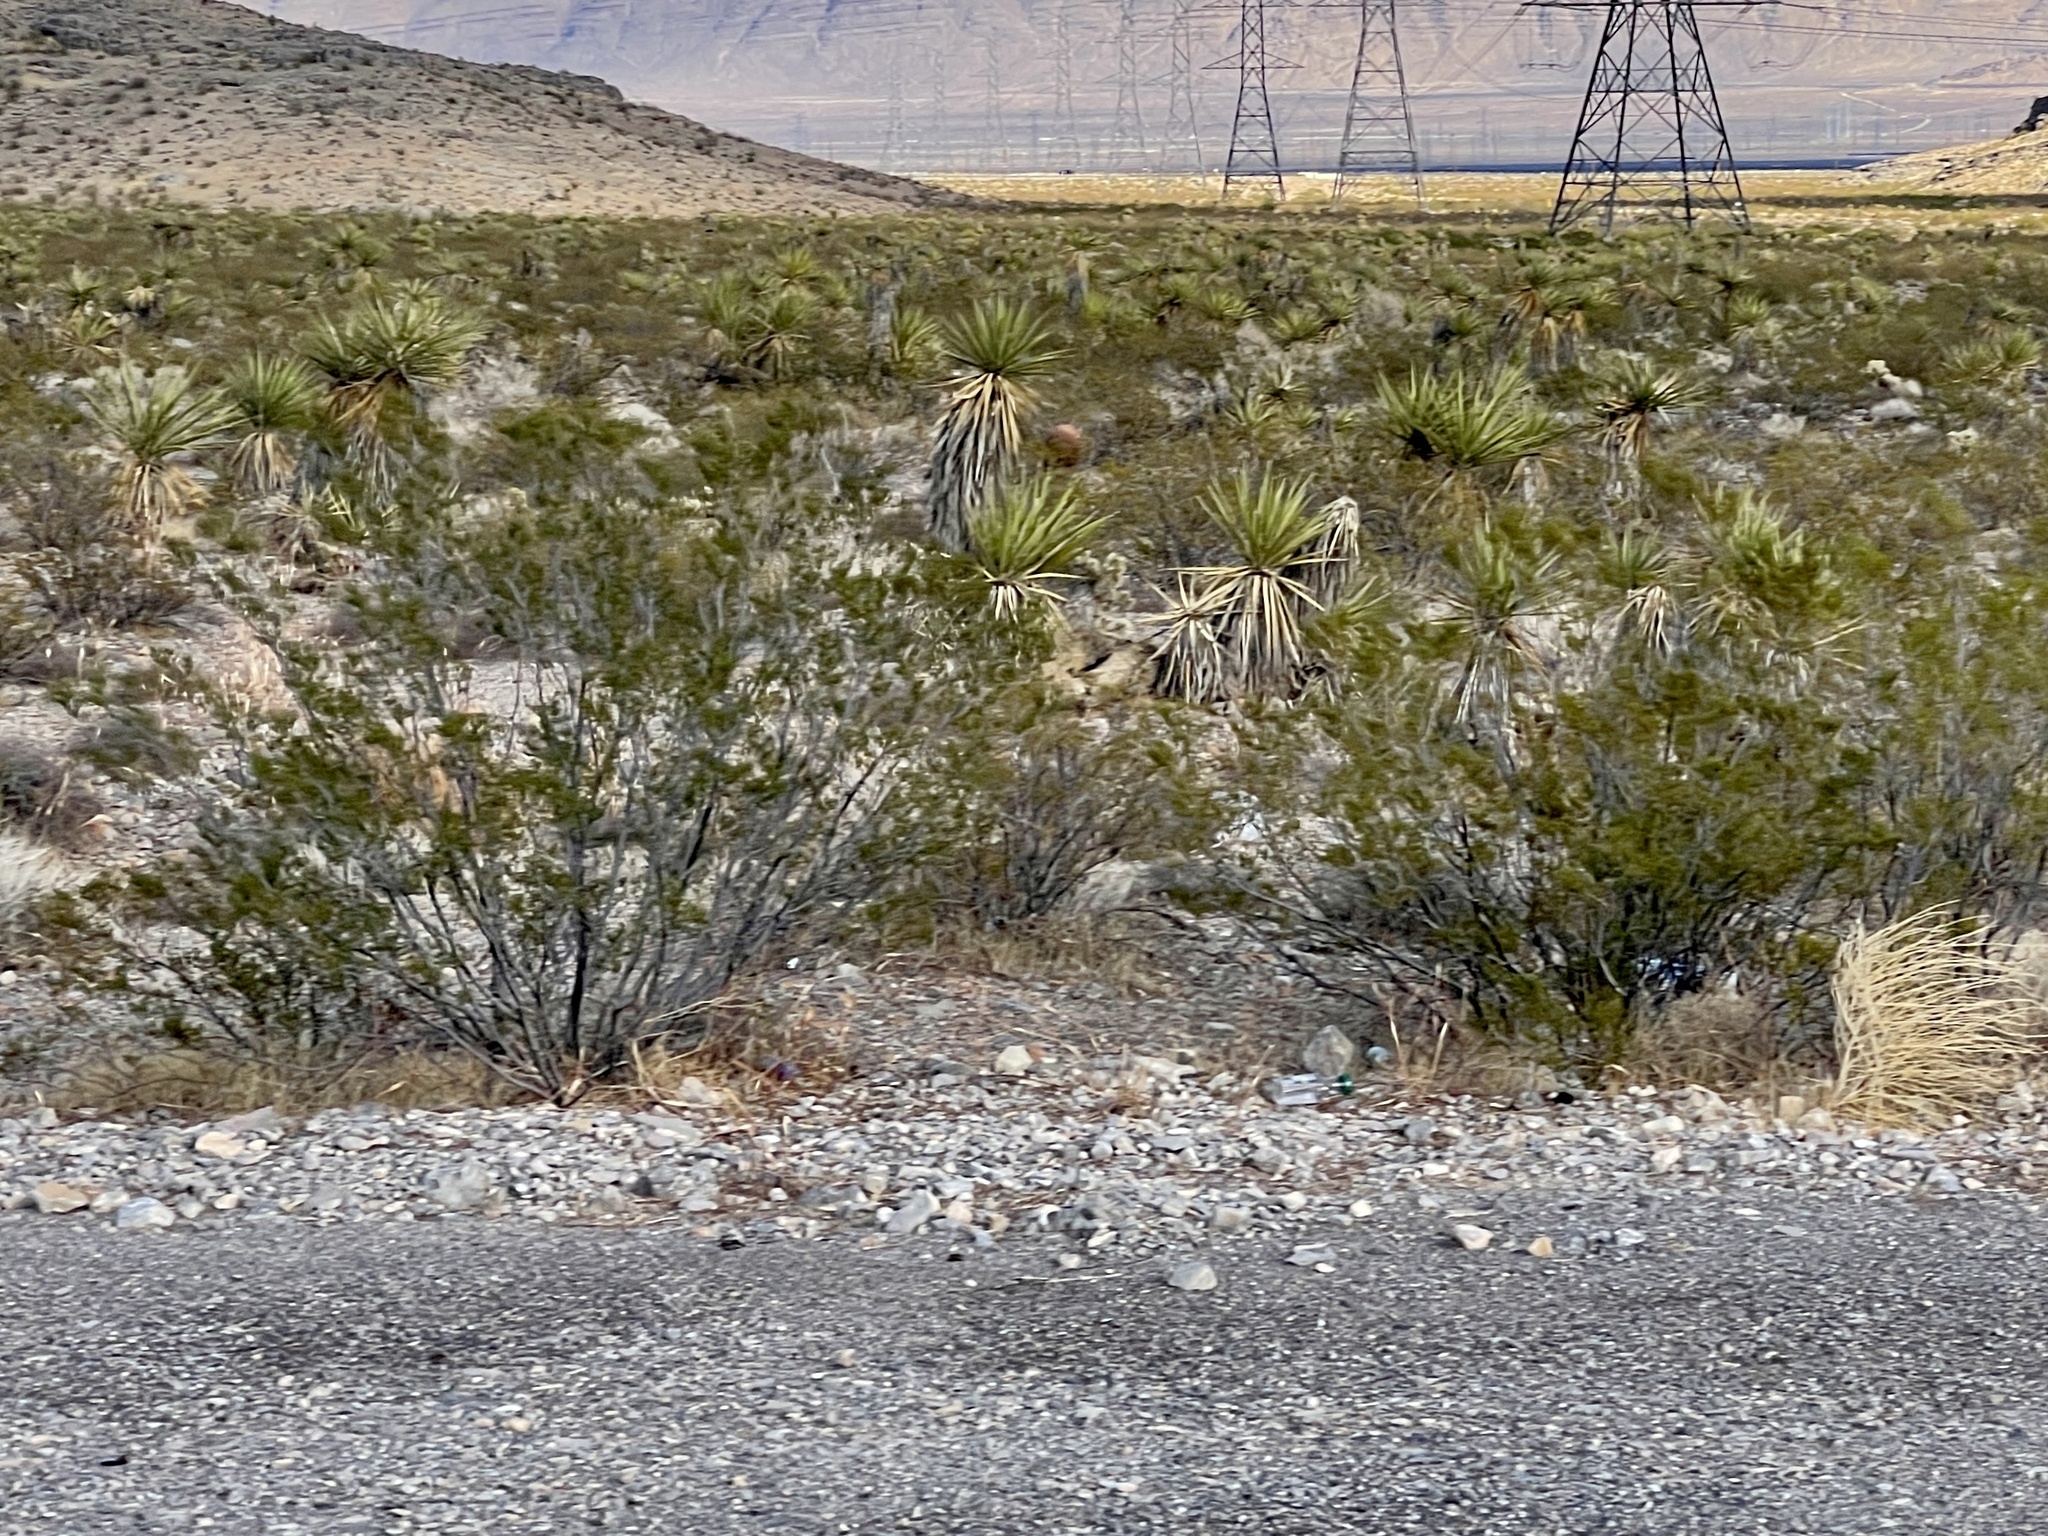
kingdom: Plantae
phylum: Tracheophyta
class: Magnoliopsida
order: Zygophyllales
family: Zygophyllaceae
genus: Larrea
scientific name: Larrea tridentata
